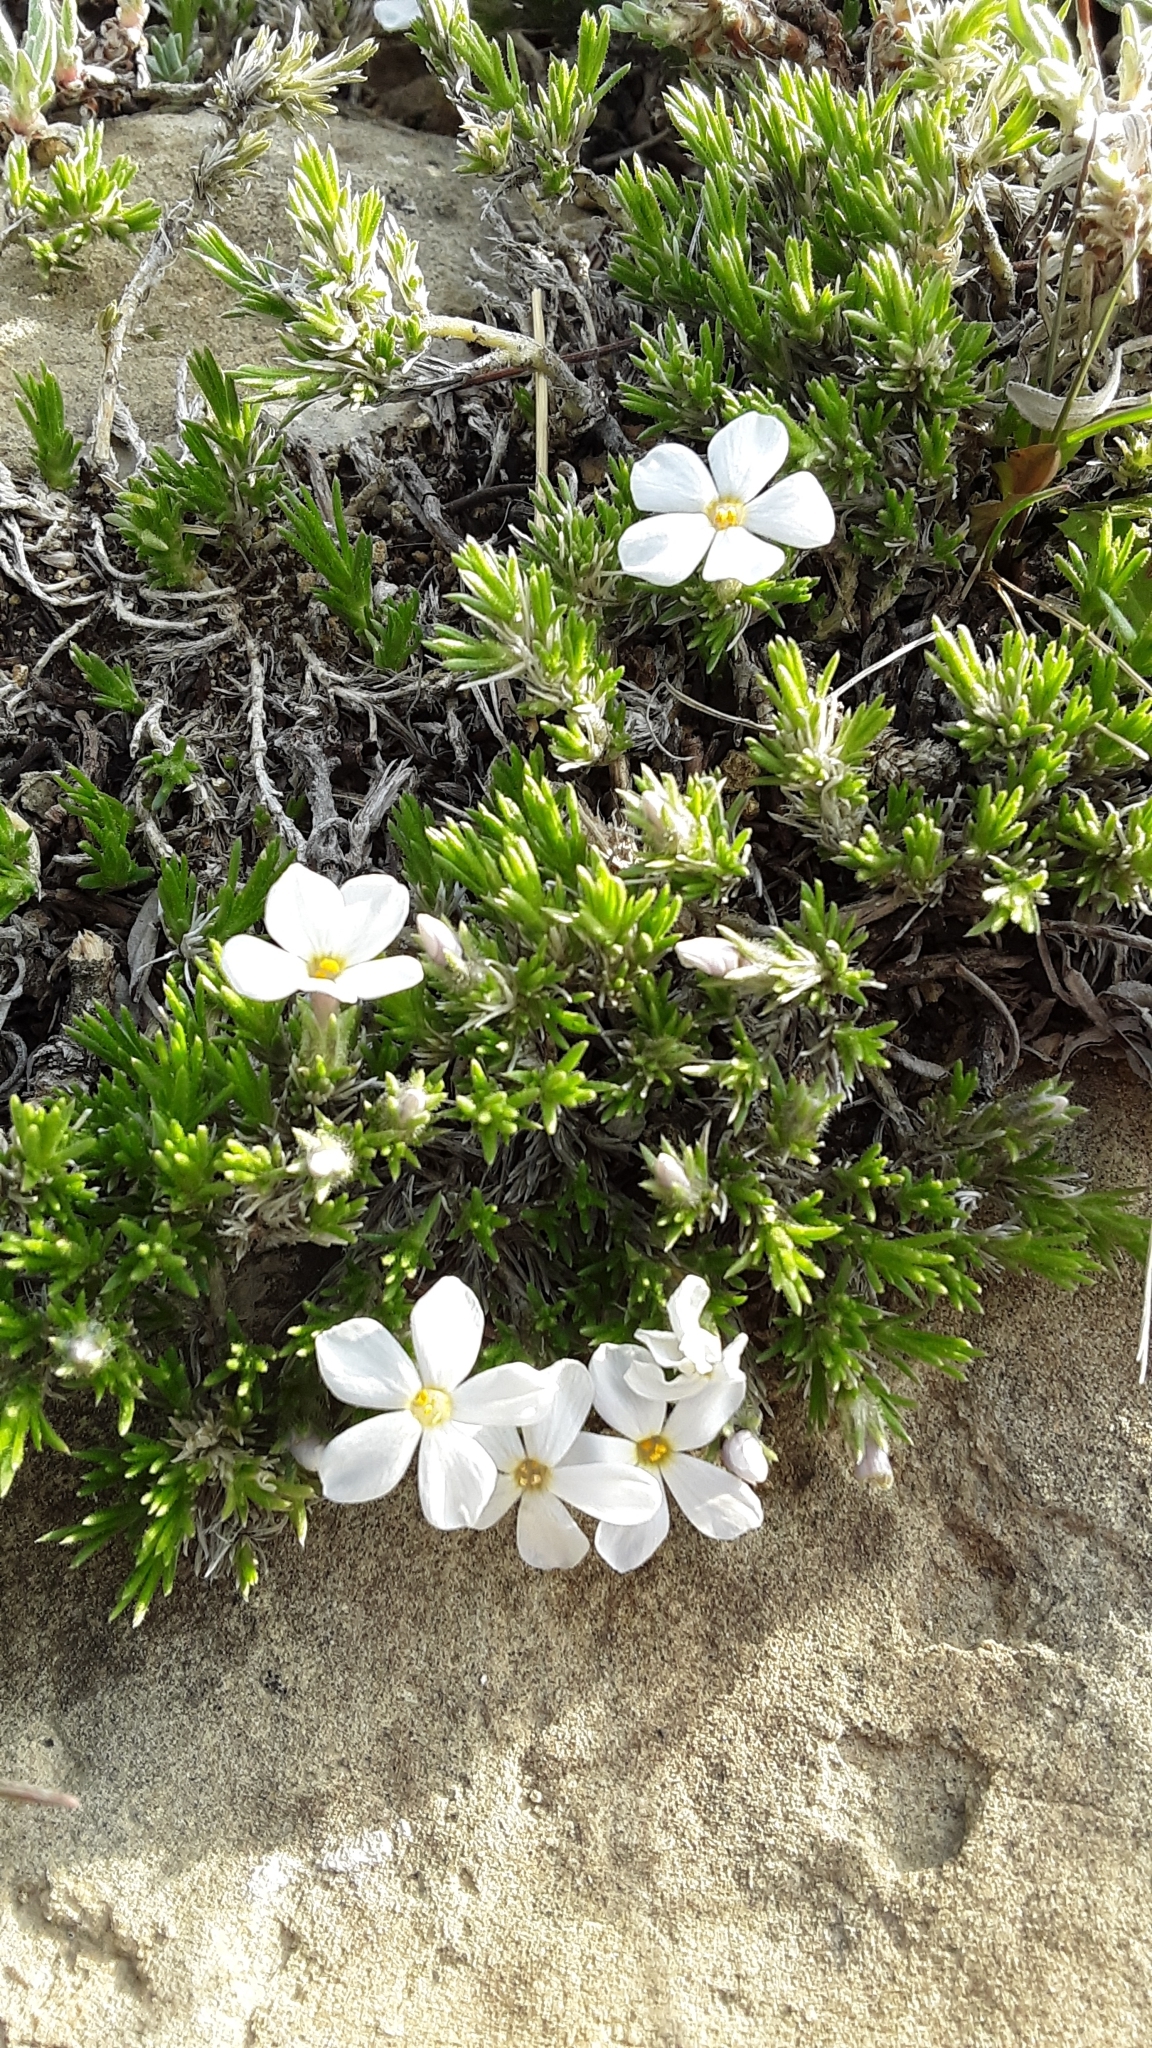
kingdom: Plantae
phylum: Tracheophyta
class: Magnoliopsida
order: Ericales
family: Polemoniaceae
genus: Phlox
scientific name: Phlox hoodii
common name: Moss phlox
